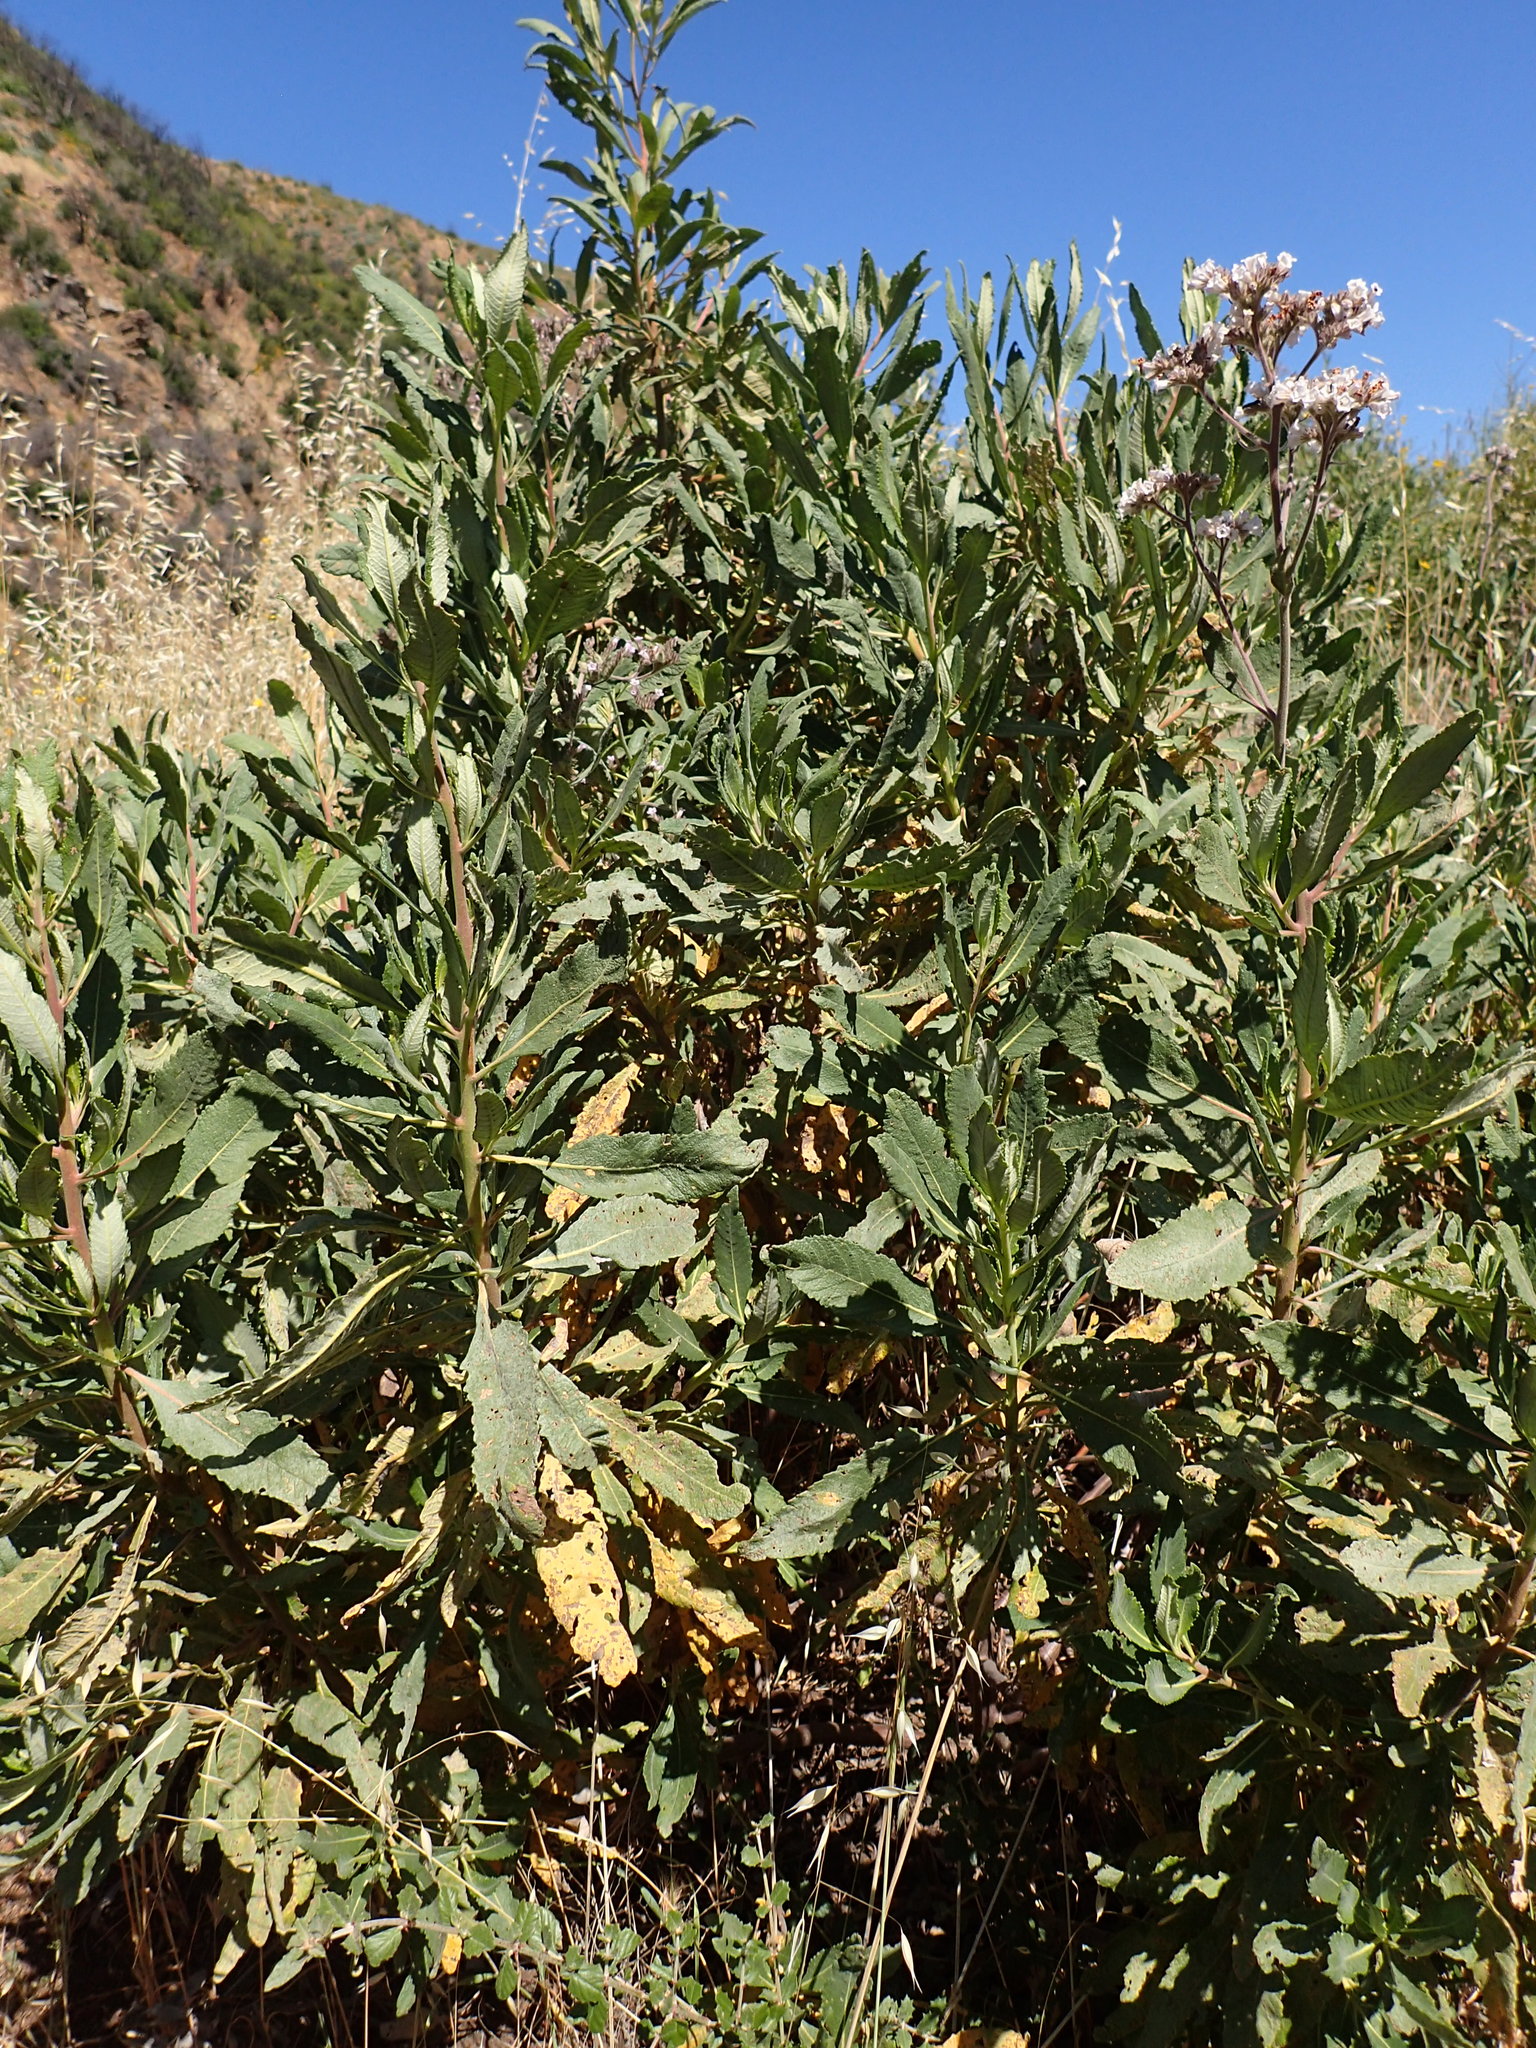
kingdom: Plantae
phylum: Tracheophyta
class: Magnoliopsida
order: Boraginales
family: Namaceae
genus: Eriodictyon
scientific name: Eriodictyon crassifolium
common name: Thick-leaf yerba-santa
